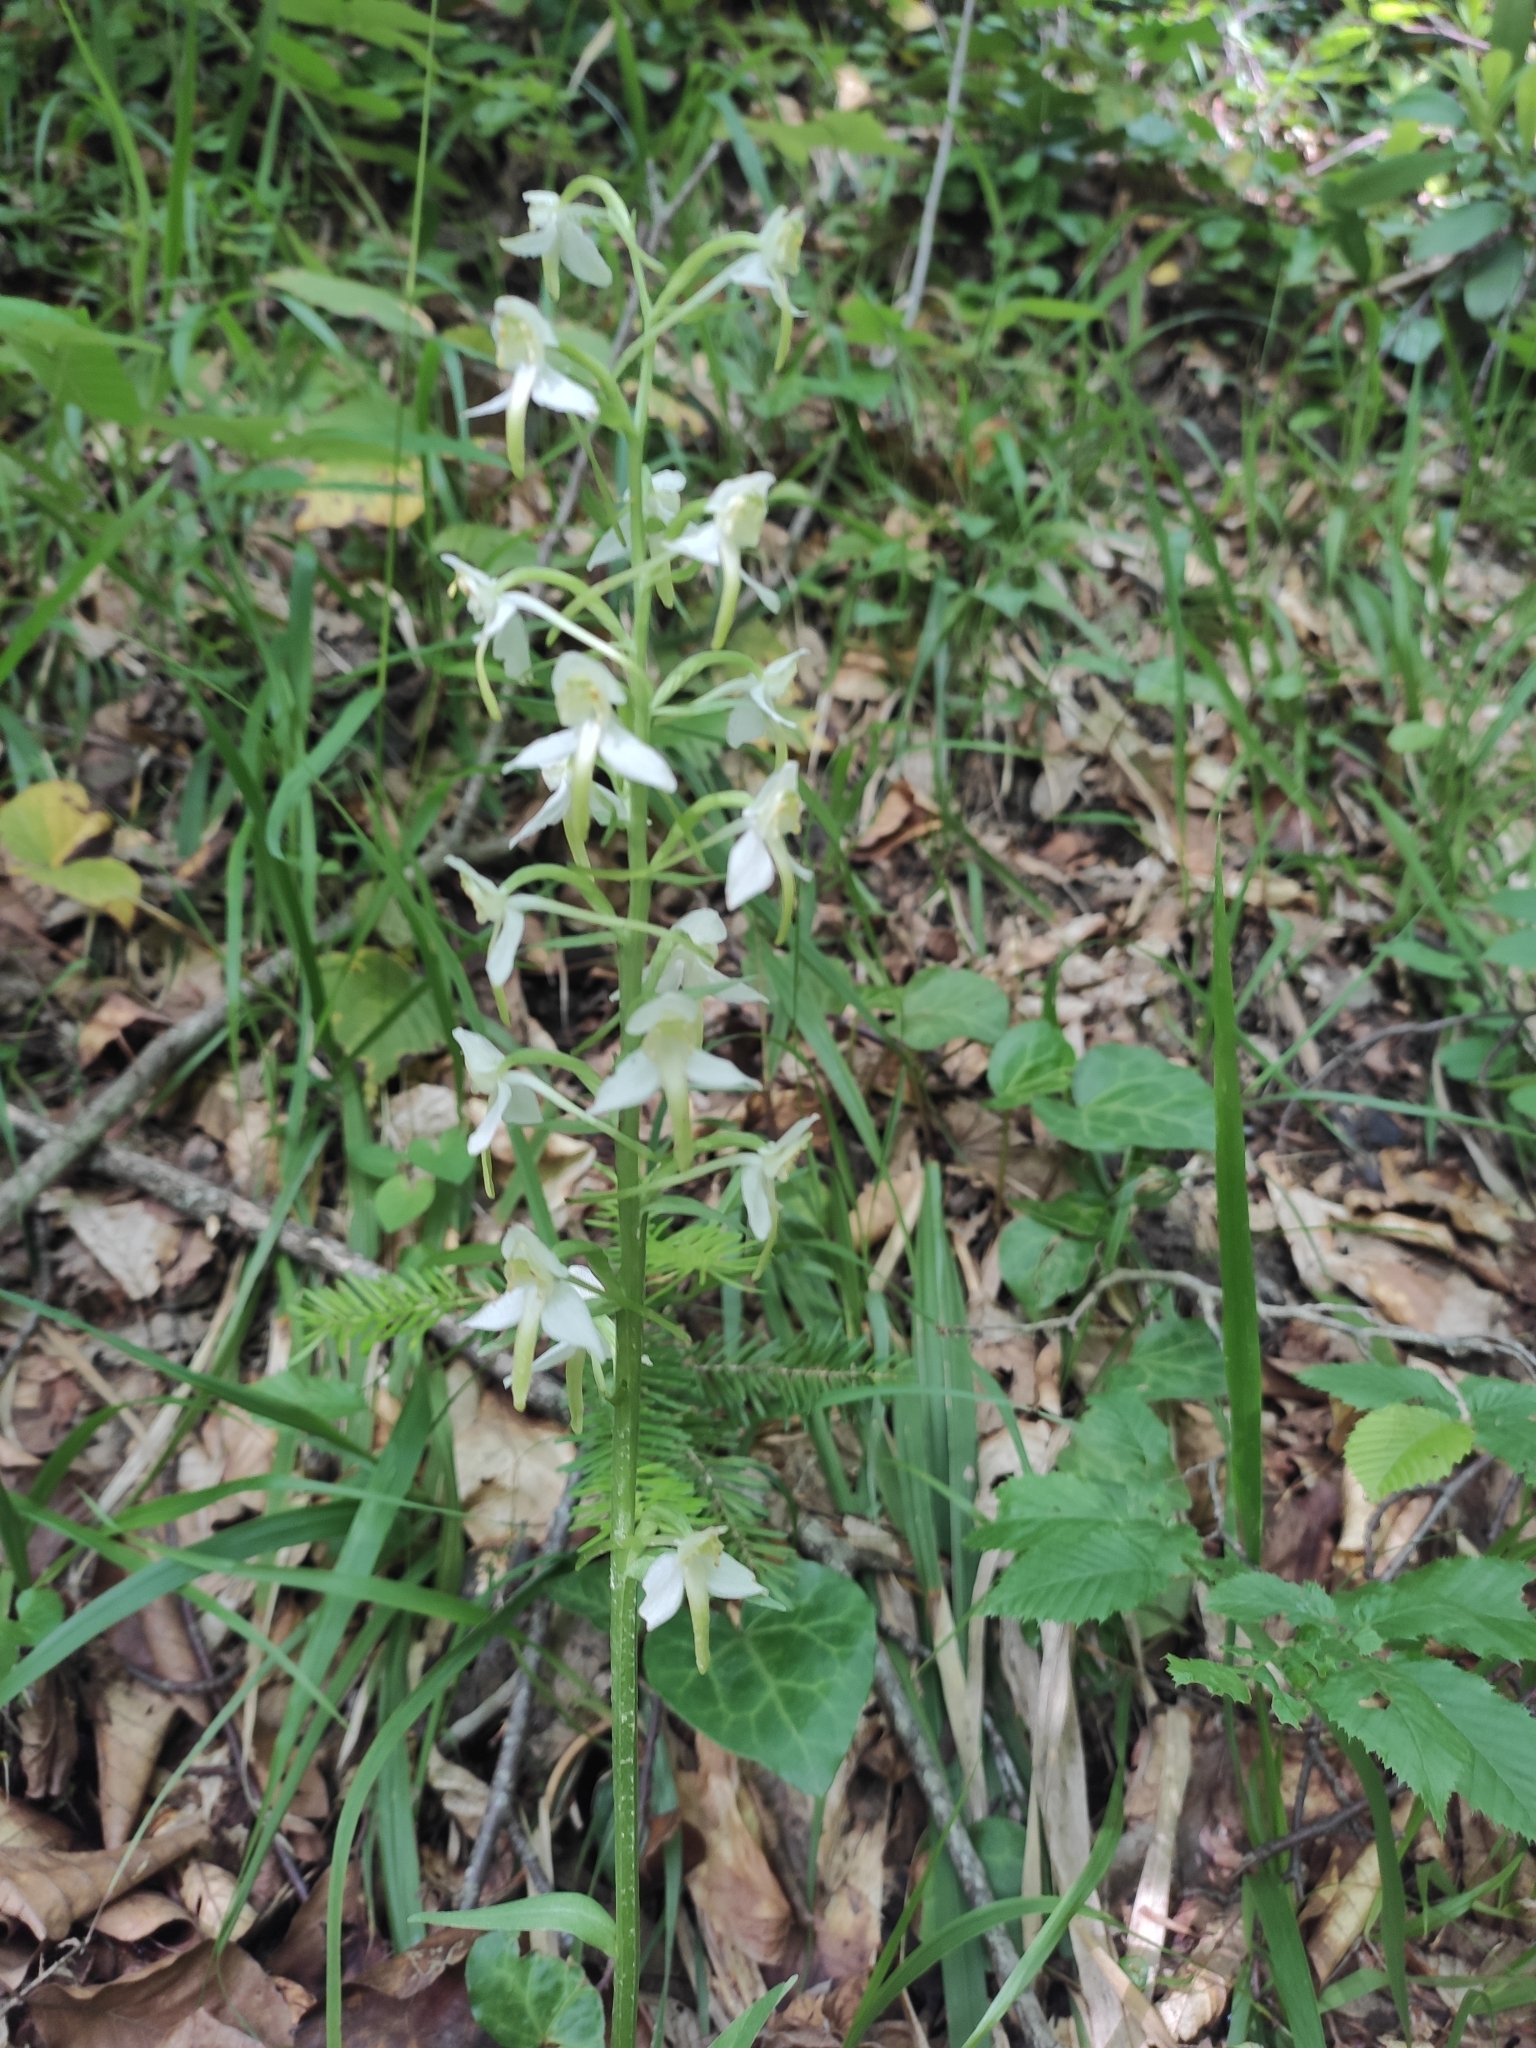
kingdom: Plantae
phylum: Tracheophyta
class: Liliopsida
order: Asparagales
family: Orchidaceae
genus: Platanthera
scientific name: Platanthera chlorantha
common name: Greater butterfly-orchid
